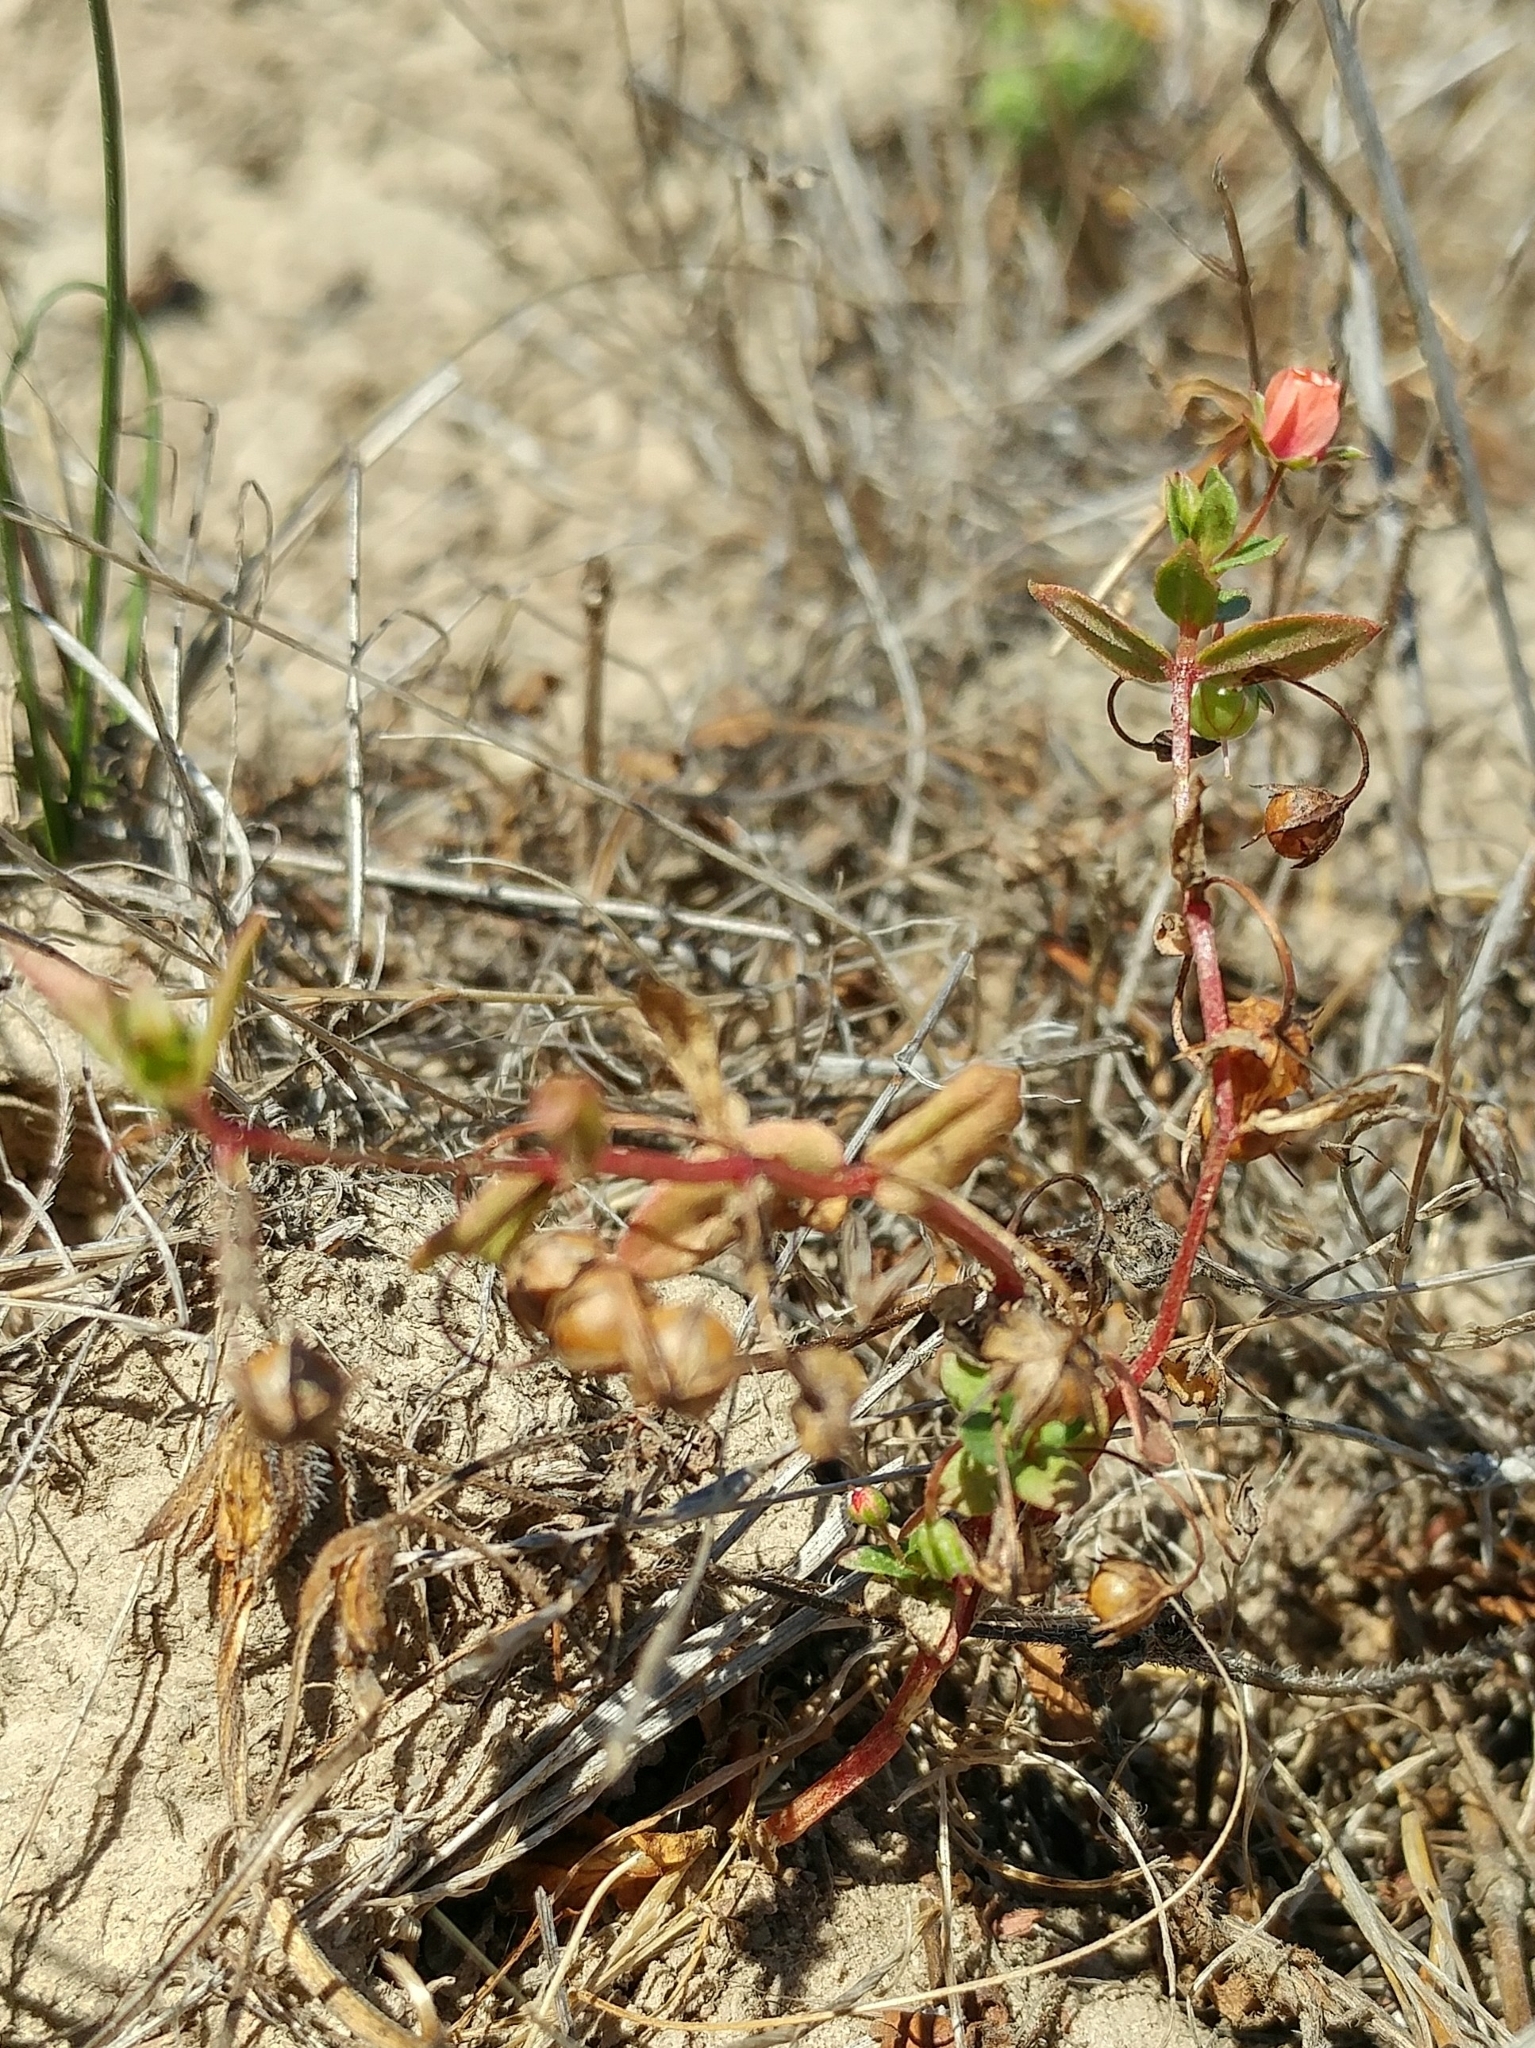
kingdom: Plantae
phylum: Tracheophyta
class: Magnoliopsida
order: Ericales
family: Primulaceae
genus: Lysimachia
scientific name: Lysimachia arvensis
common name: Scarlet pimpernel
